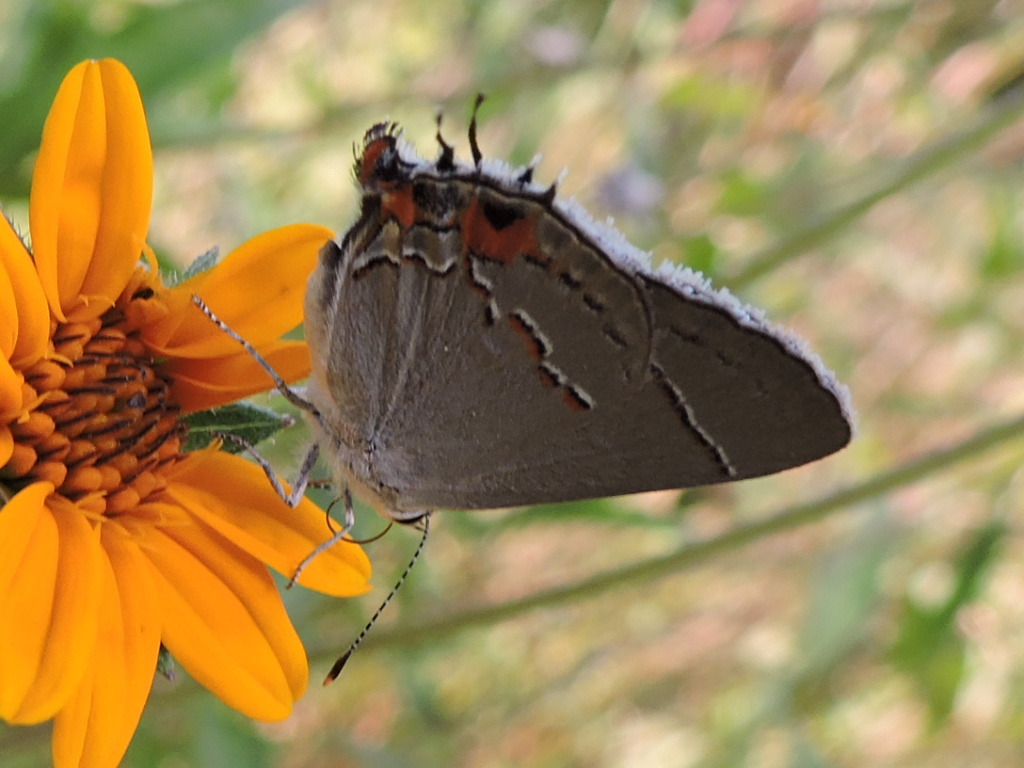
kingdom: Animalia
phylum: Arthropoda
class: Insecta
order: Lepidoptera
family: Lycaenidae
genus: Strymon
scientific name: Strymon melinus
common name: Gray hairstreak
